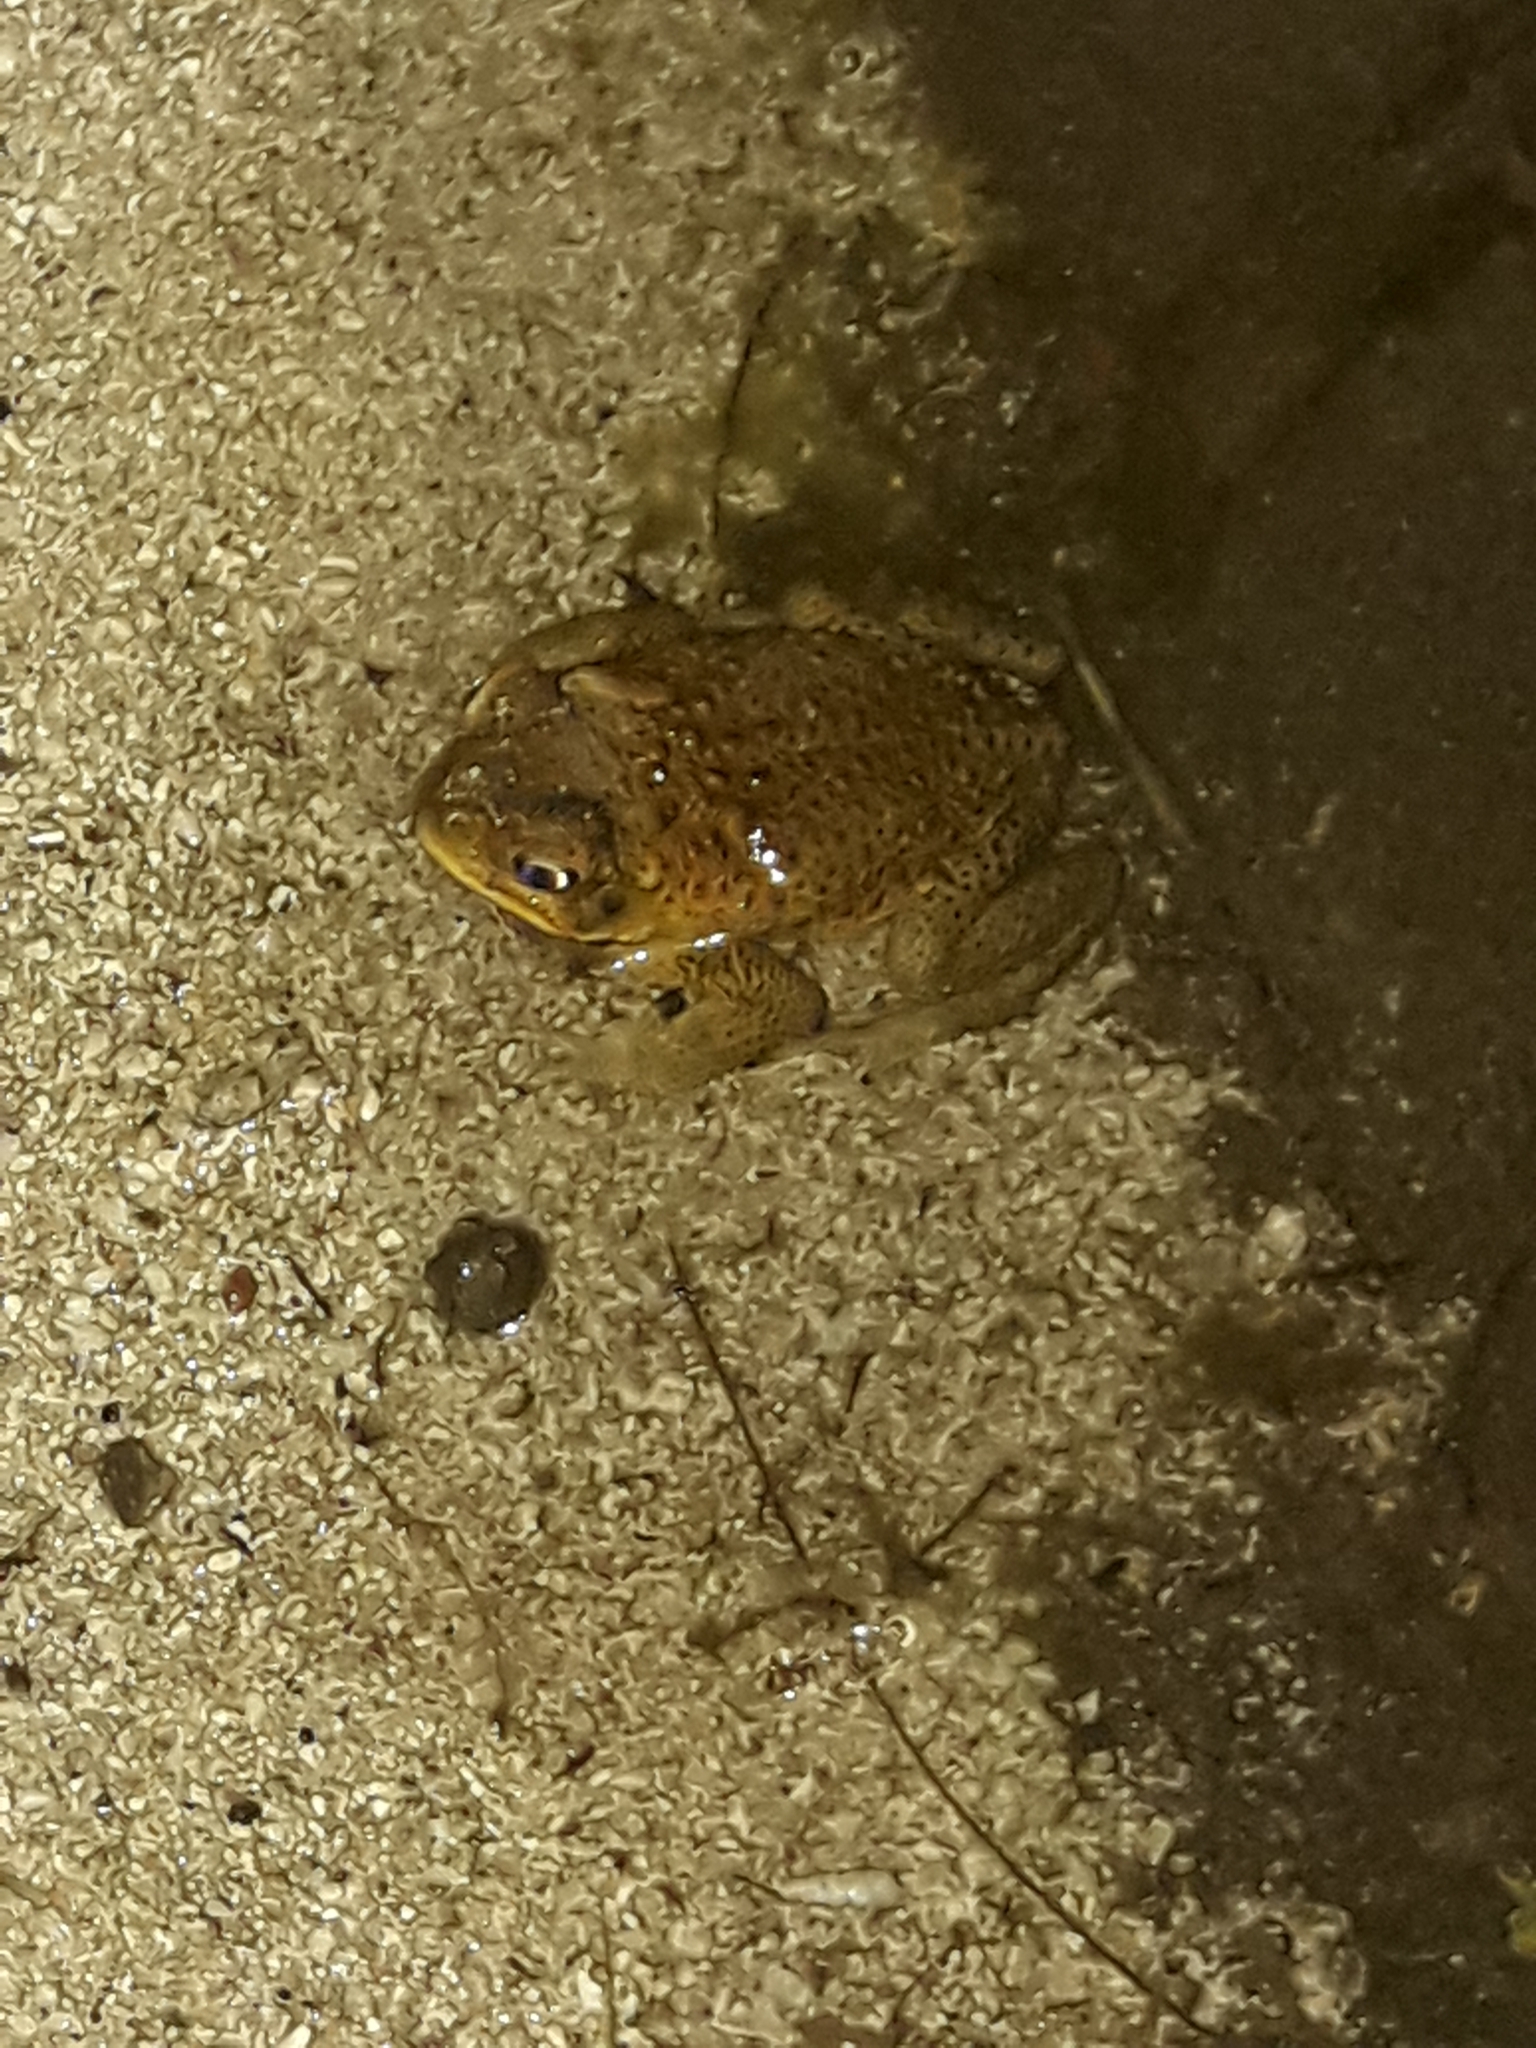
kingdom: Animalia
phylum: Chordata
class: Amphibia
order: Anura
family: Bufonidae
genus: Rhinella
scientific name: Rhinella marina
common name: Cane toad
